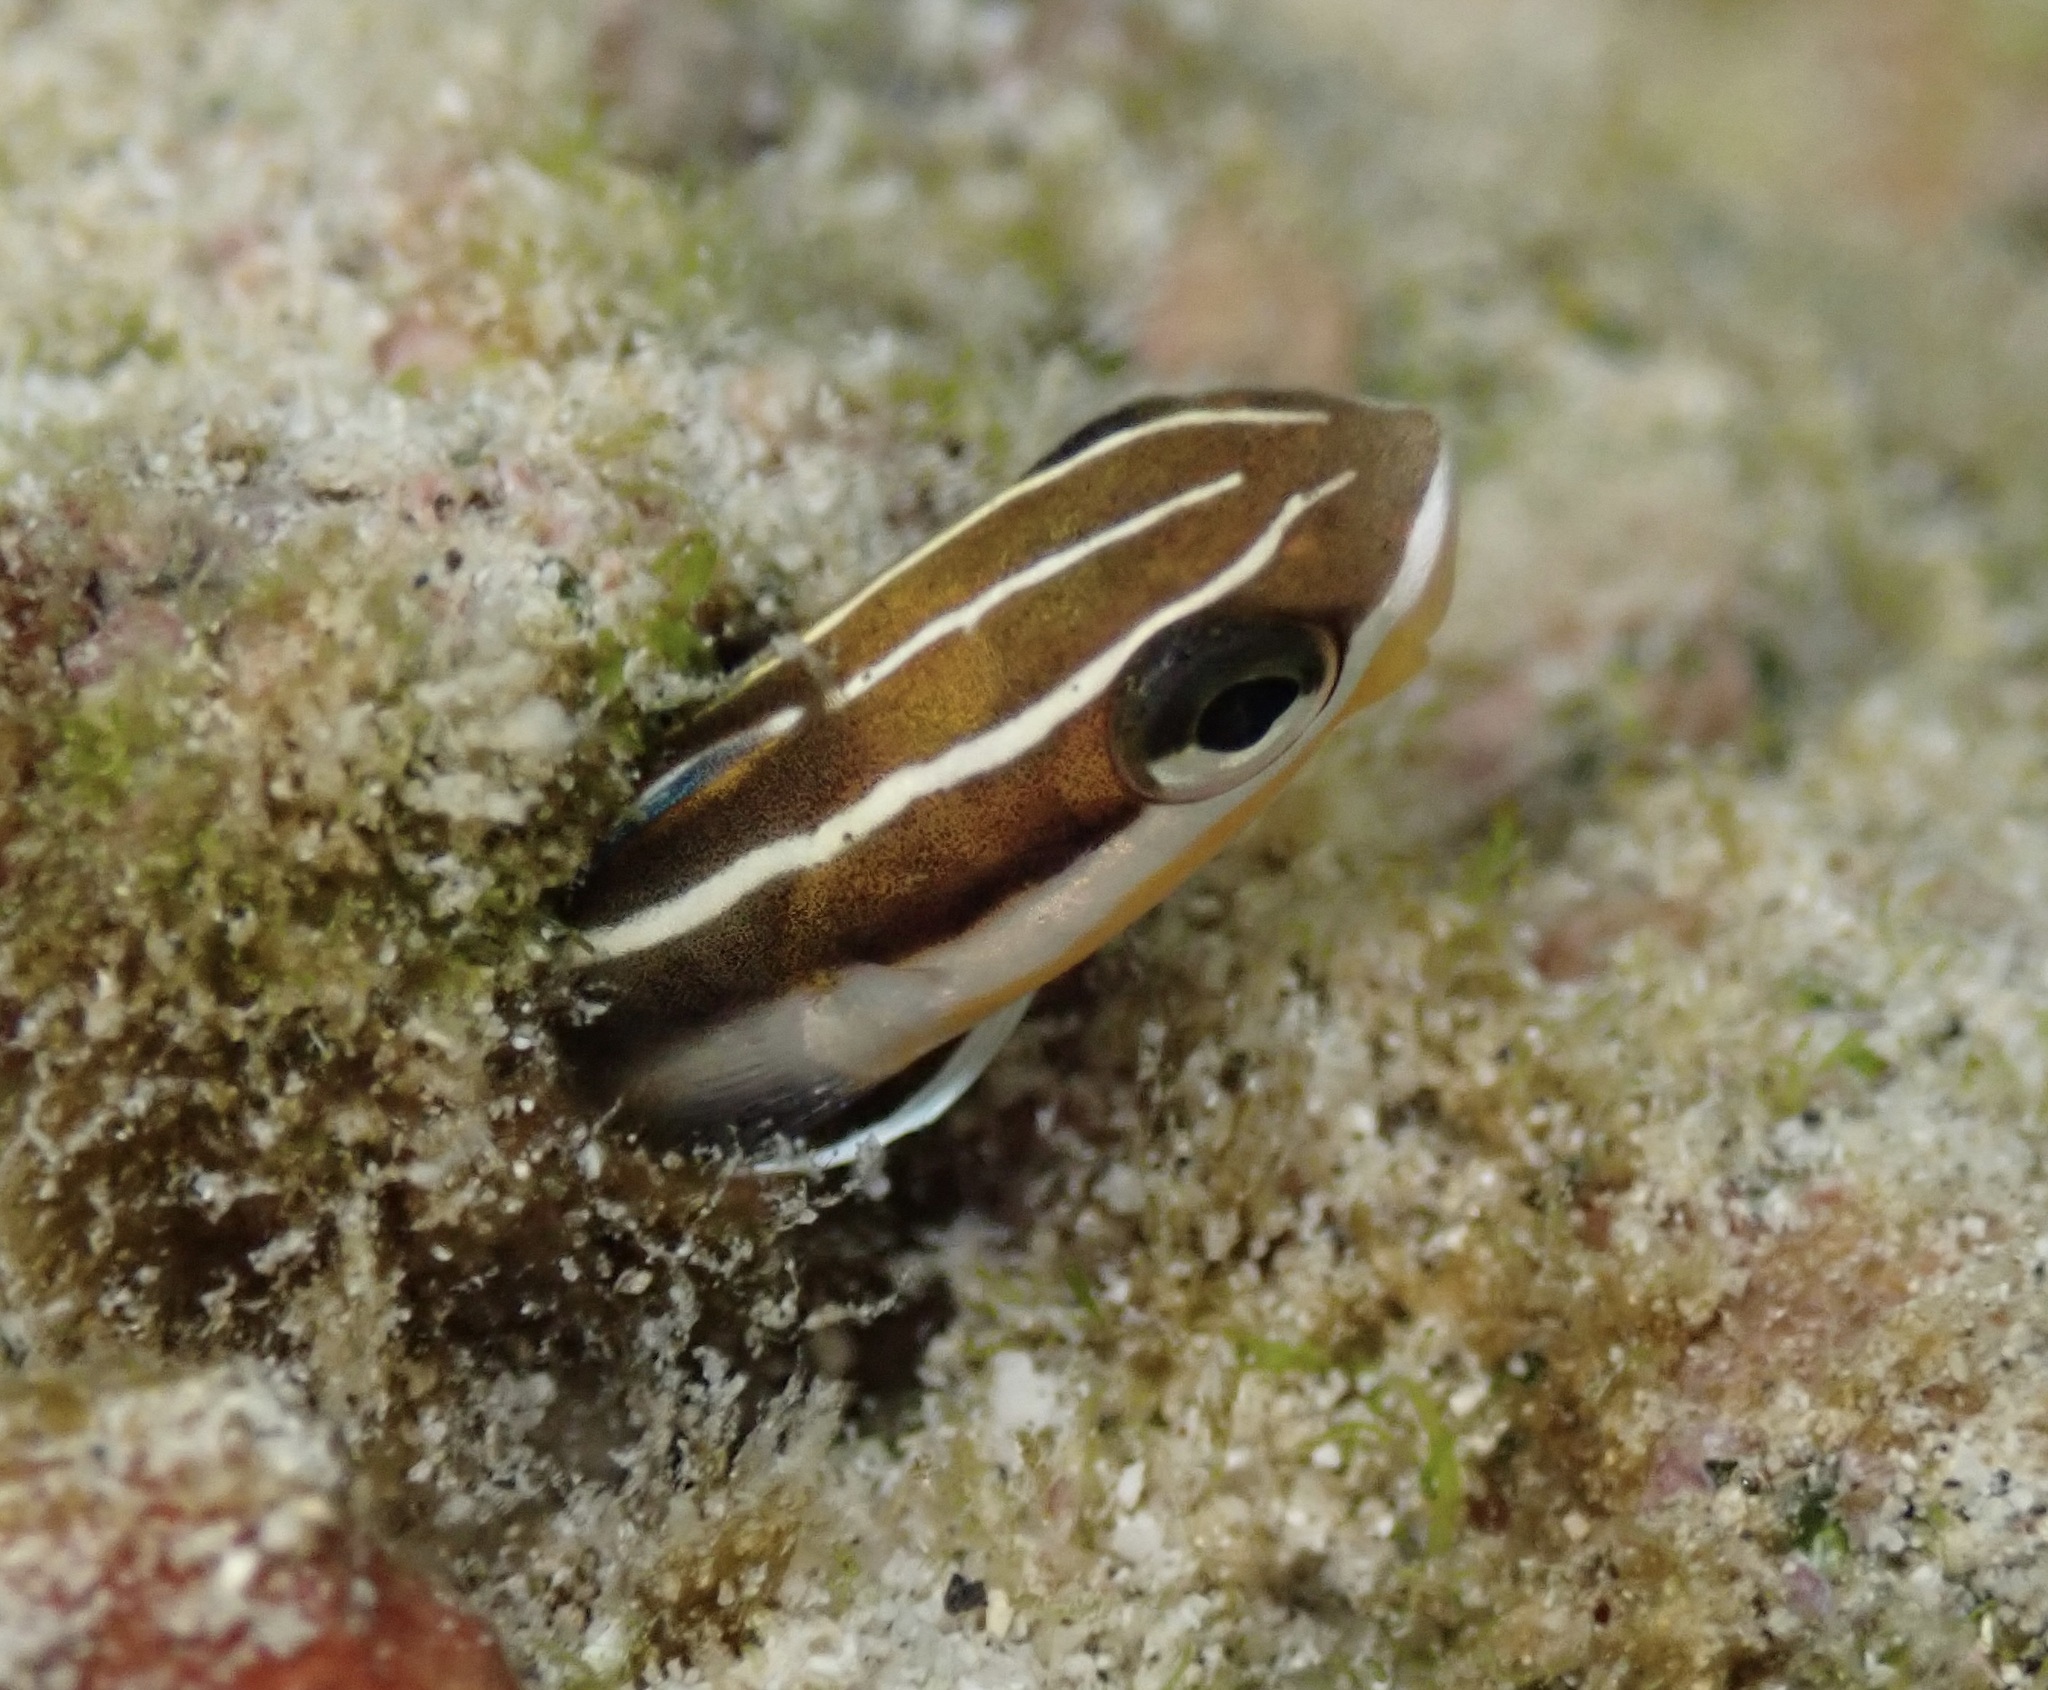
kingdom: Animalia
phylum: Chordata
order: Perciformes
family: Blenniidae
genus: Plagiotremus
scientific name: Plagiotremus goslinei
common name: Biting blenny
